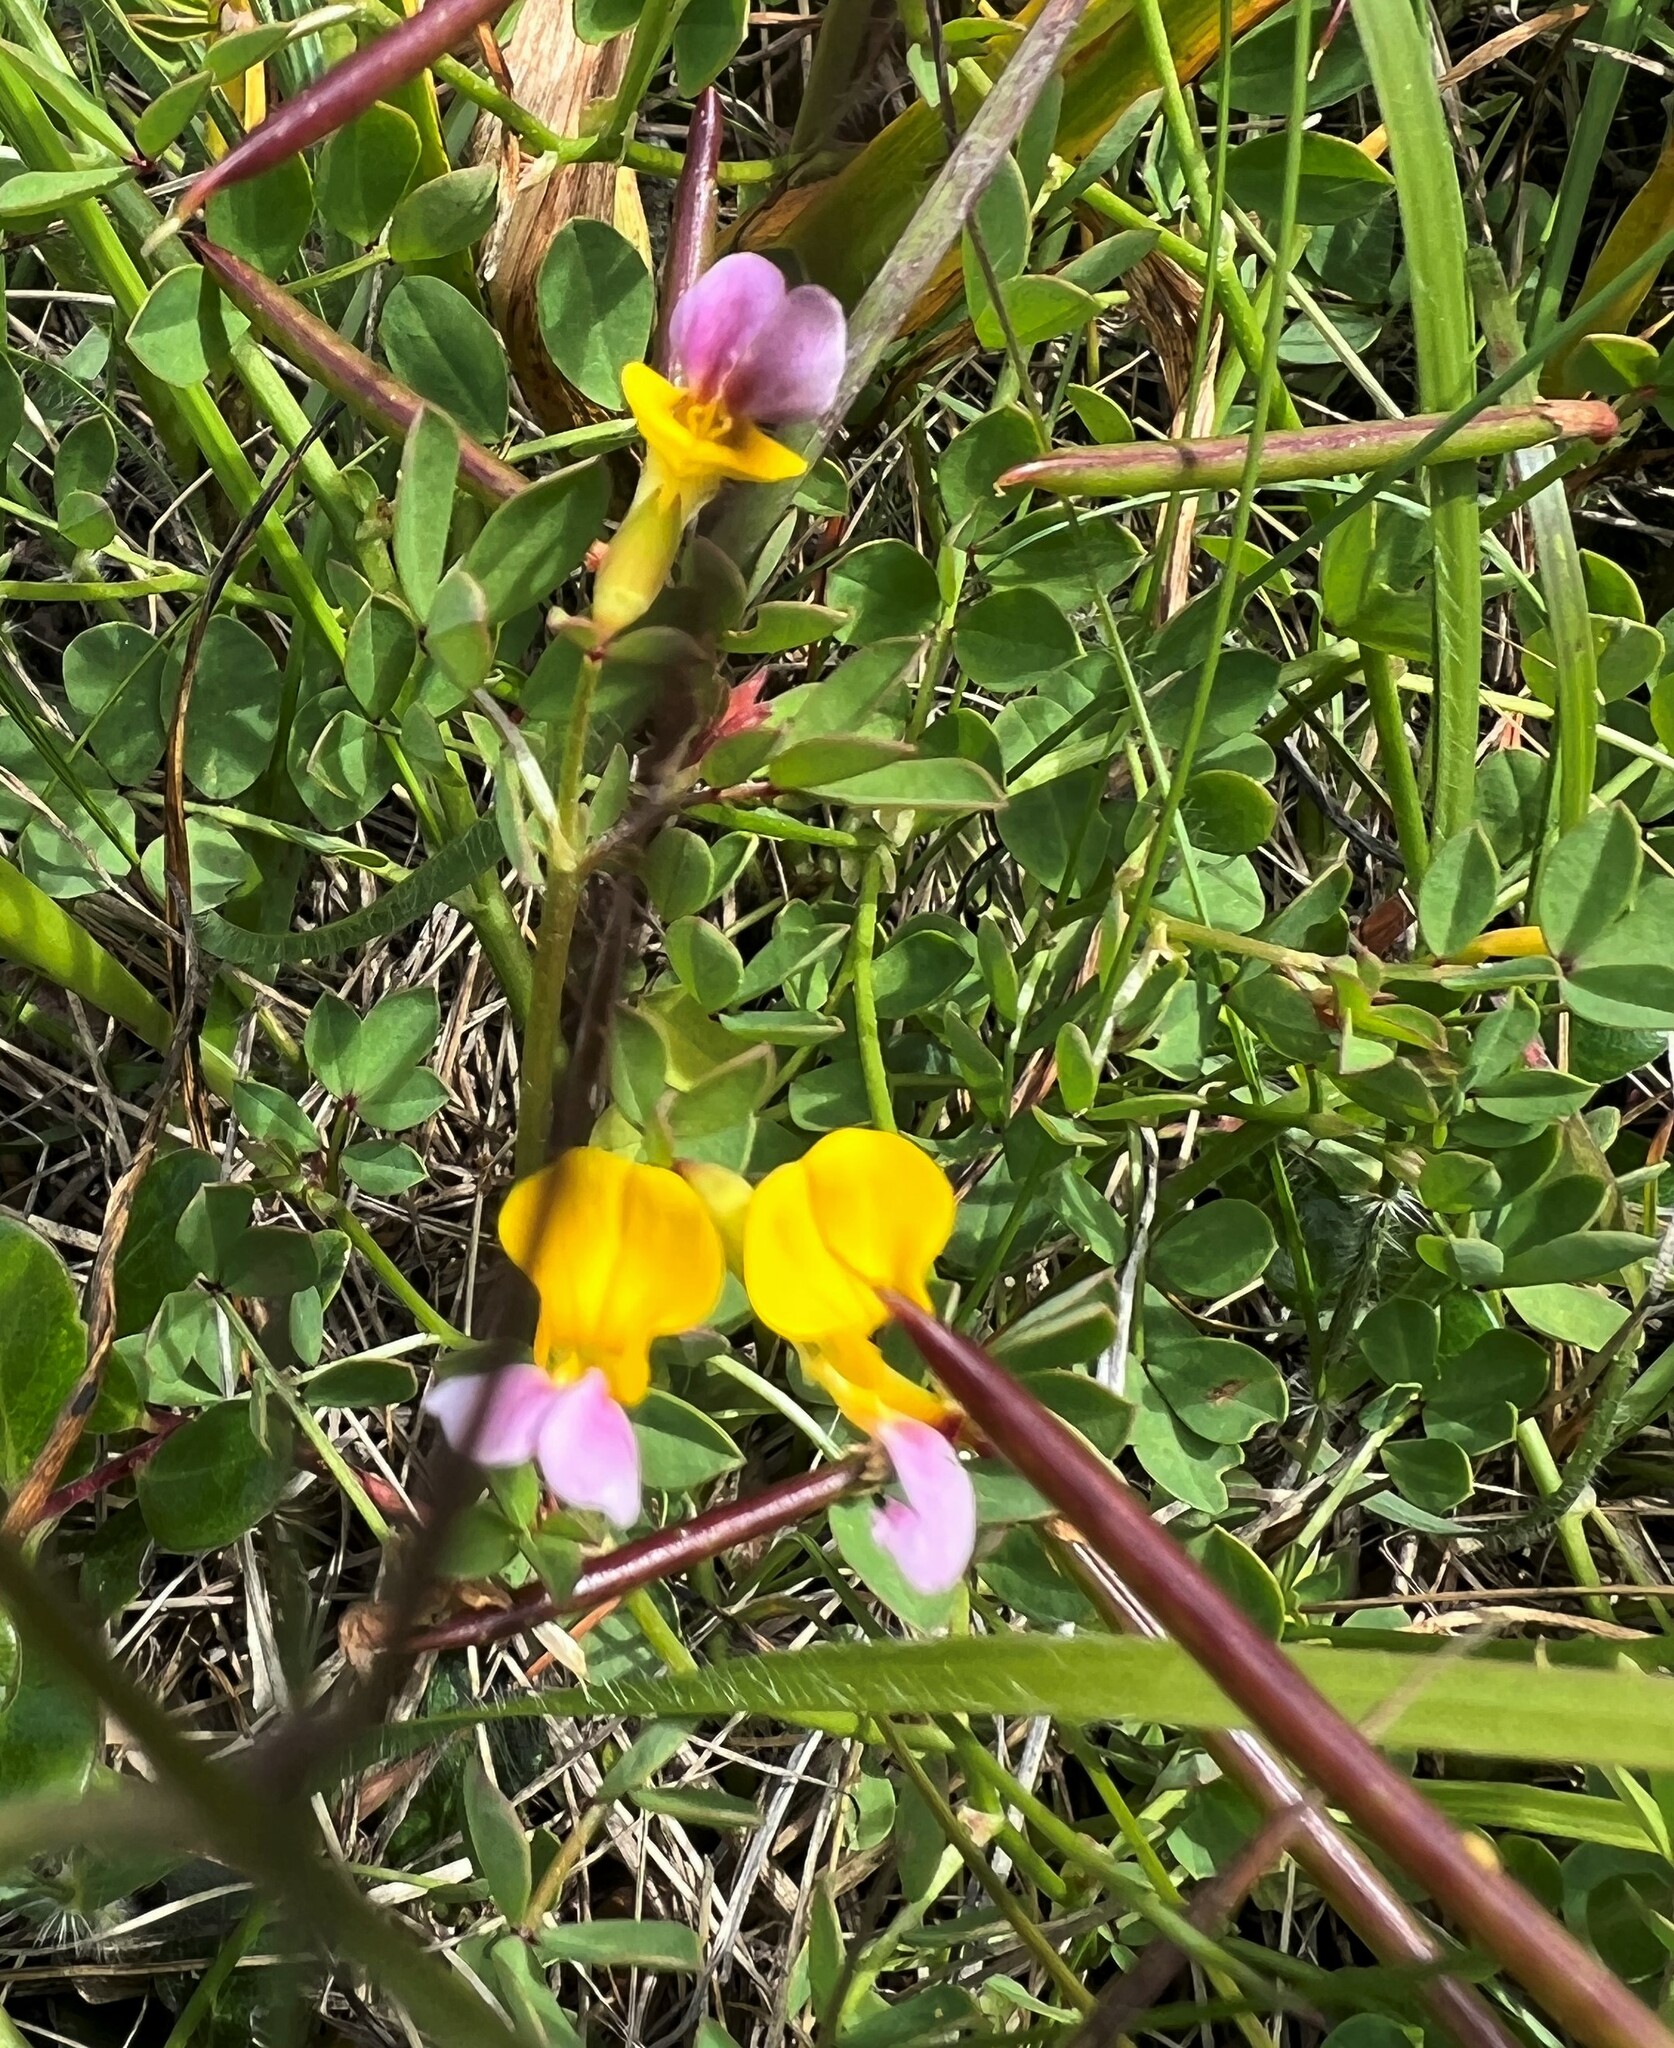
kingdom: Plantae
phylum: Tracheophyta
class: Magnoliopsida
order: Fabales
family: Fabaceae
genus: Hosackia
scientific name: Hosackia gracilis
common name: Seaside bird's-foot lotus
